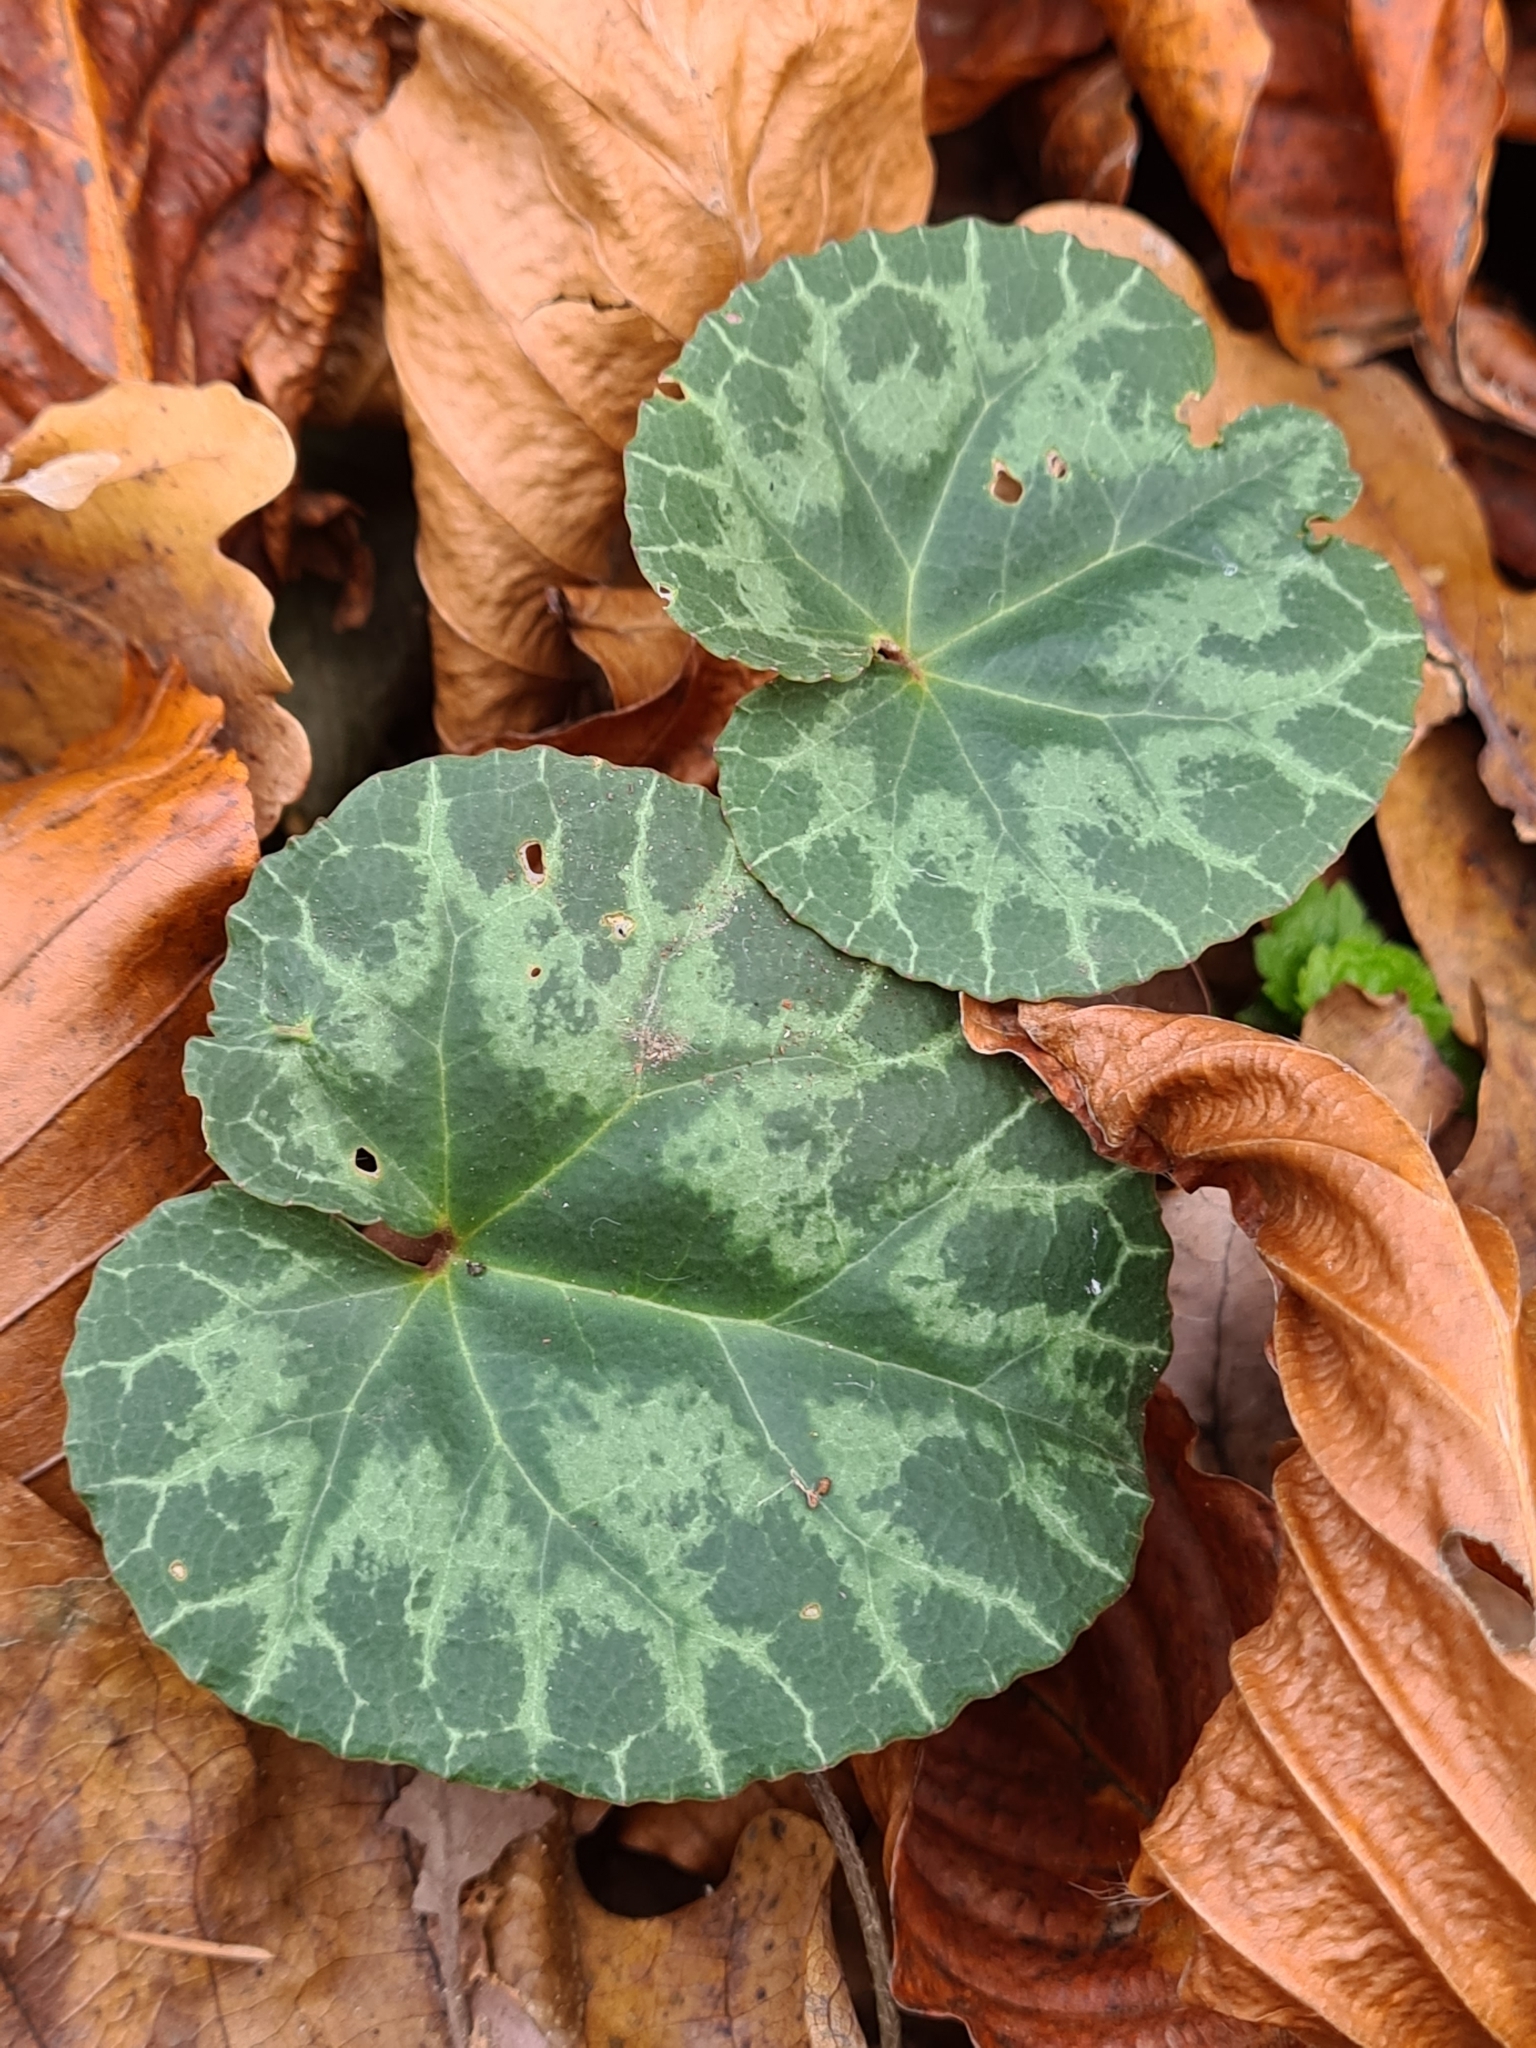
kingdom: Plantae
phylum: Tracheophyta
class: Magnoliopsida
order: Ericales
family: Primulaceae
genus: Cyclamen
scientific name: Cyclamen purpurascens
